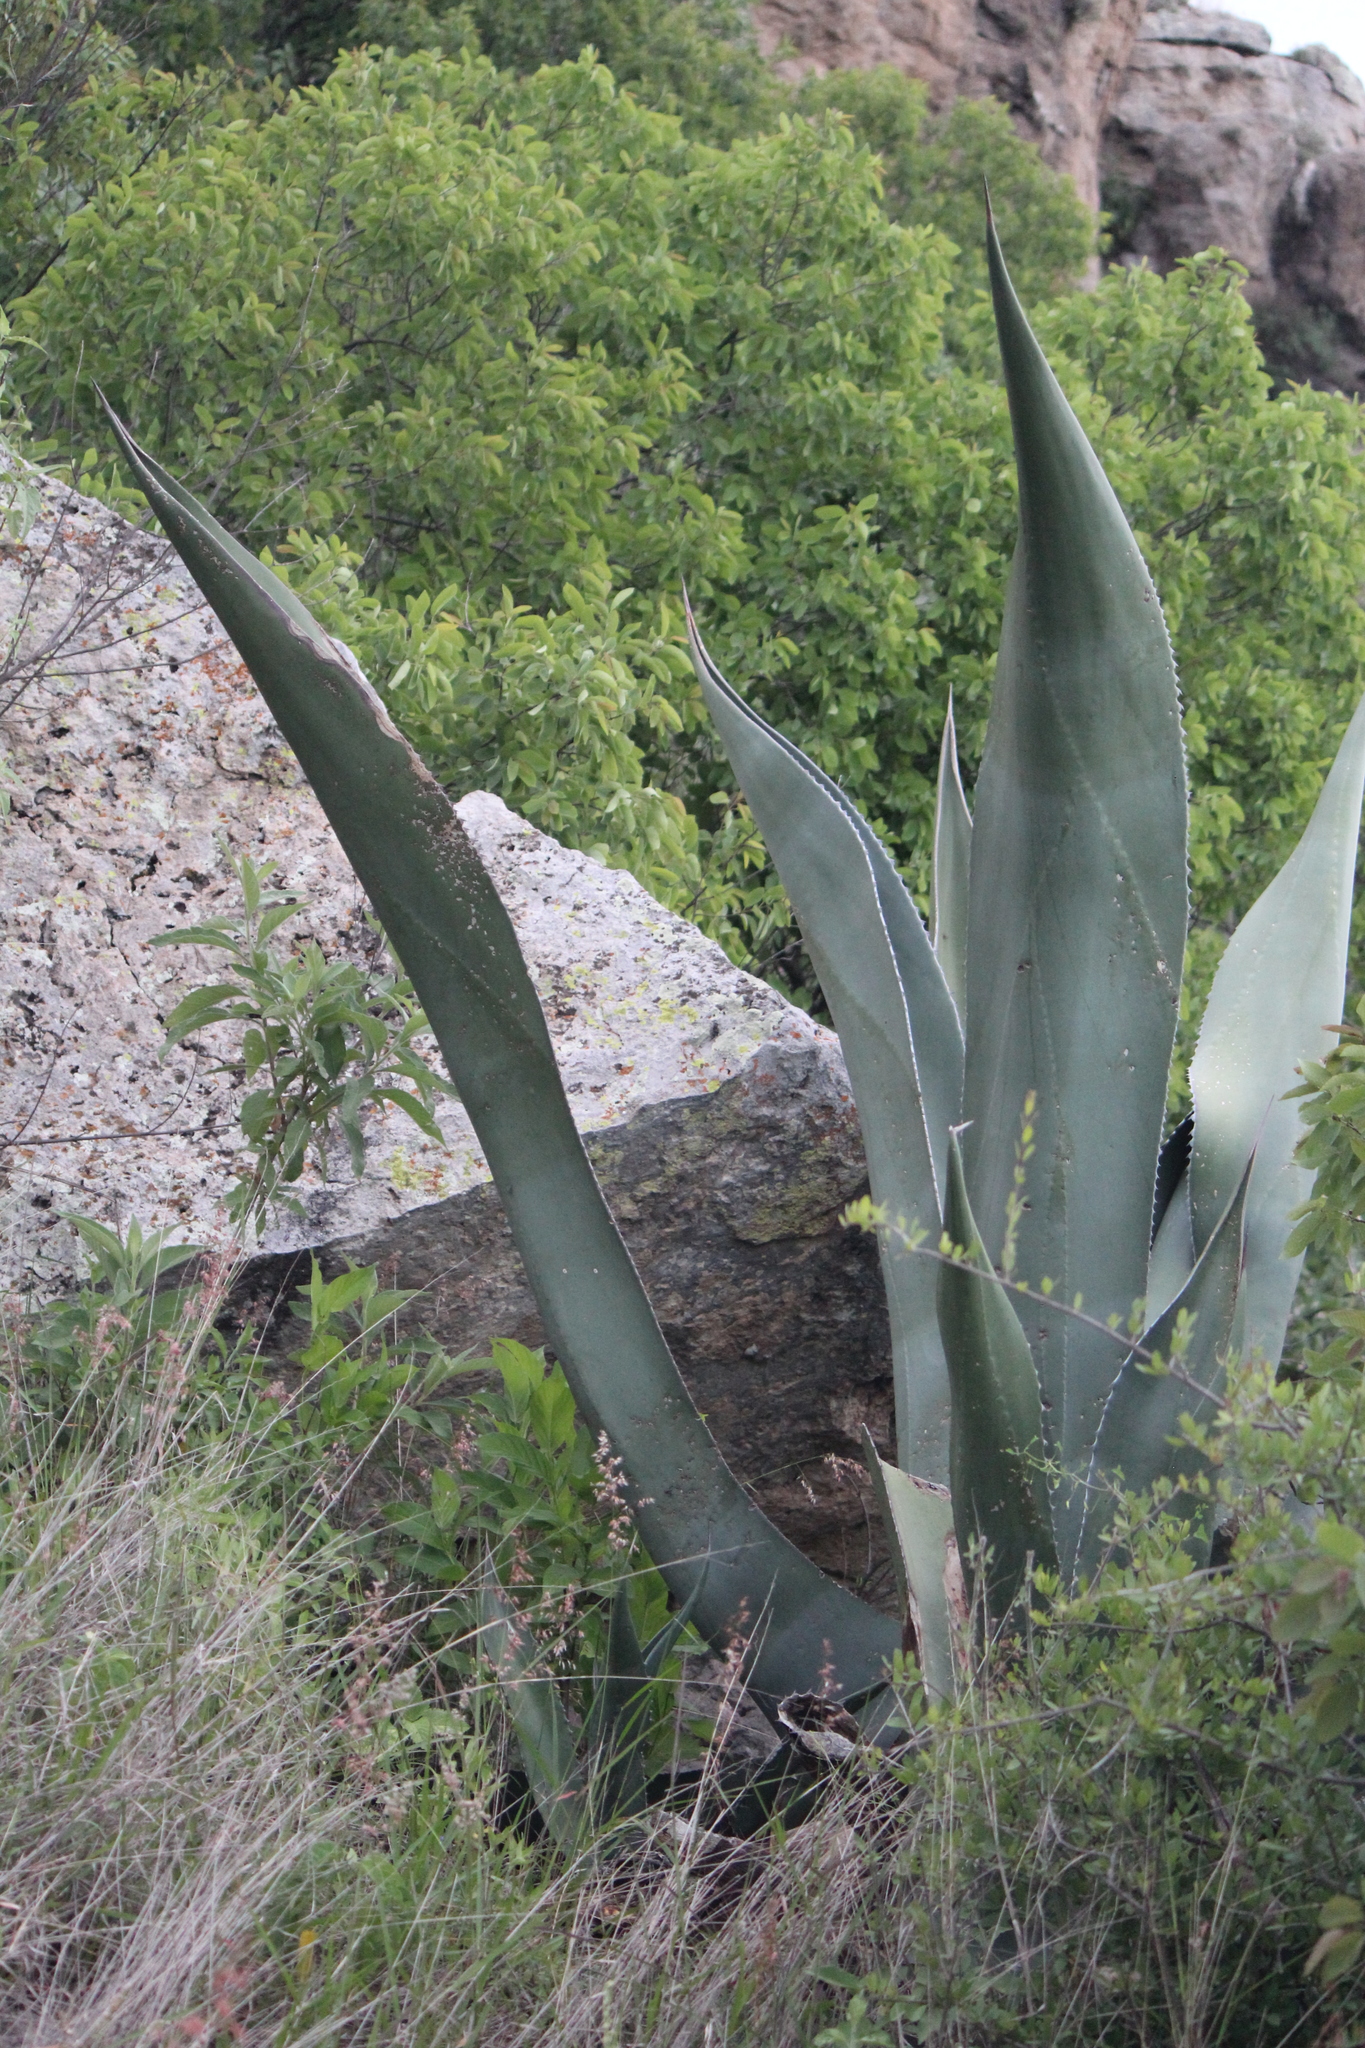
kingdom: Plantae
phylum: Tracheophyta
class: Liliopsida
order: Asparagales
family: Asparagaceae
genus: Agave
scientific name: Agave salmiana
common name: Pulque agave
